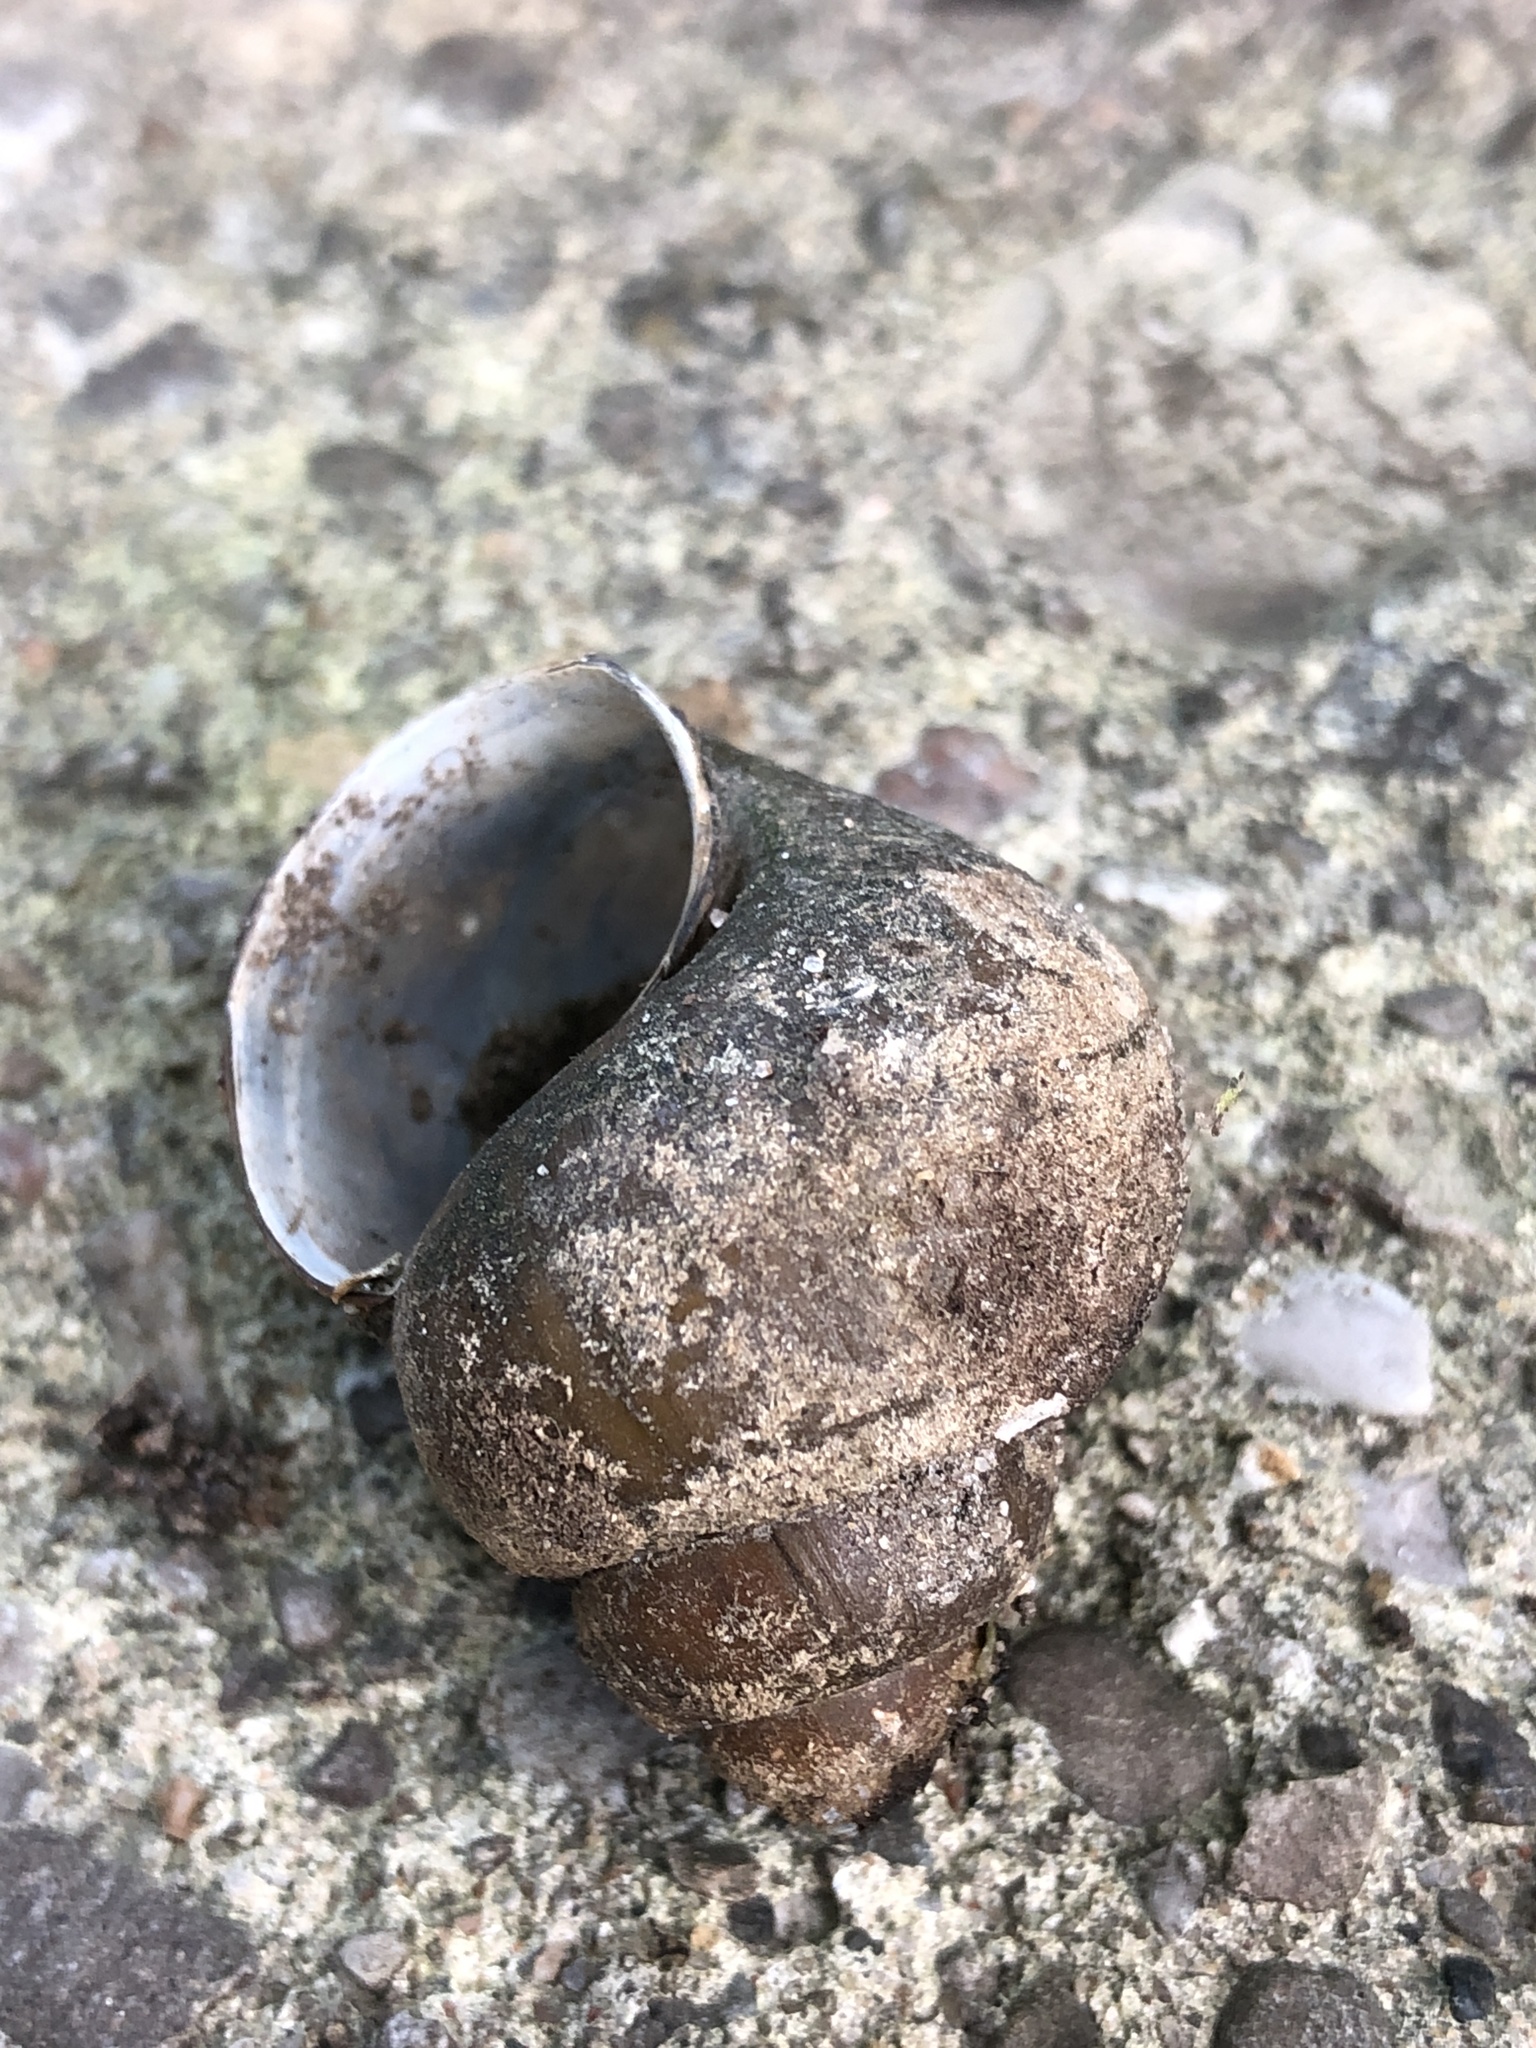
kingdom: Animalia
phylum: Mollusca
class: Gastropoda
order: Architaenioglossa
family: Viviparidae
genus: Cipangopaludina
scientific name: Cipangopaludina chinensis
